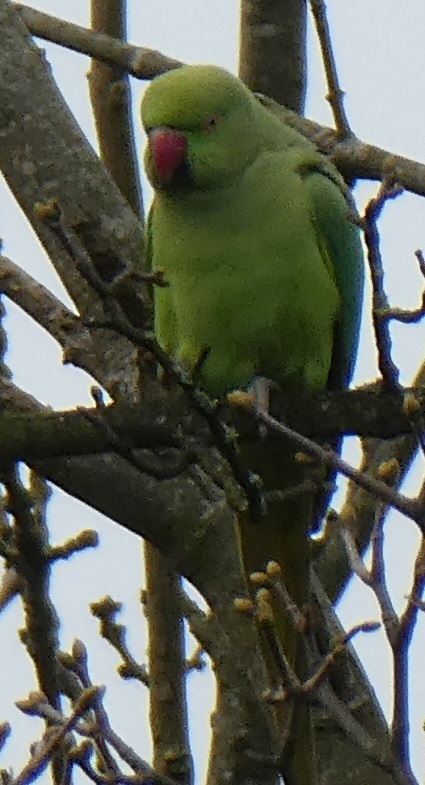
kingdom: Animalia
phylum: Chordata
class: Aves
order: Psittaciformes
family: Psittacidae
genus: Psittacula
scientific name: Psittacula krameri
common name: Rose-ringed parakeet
